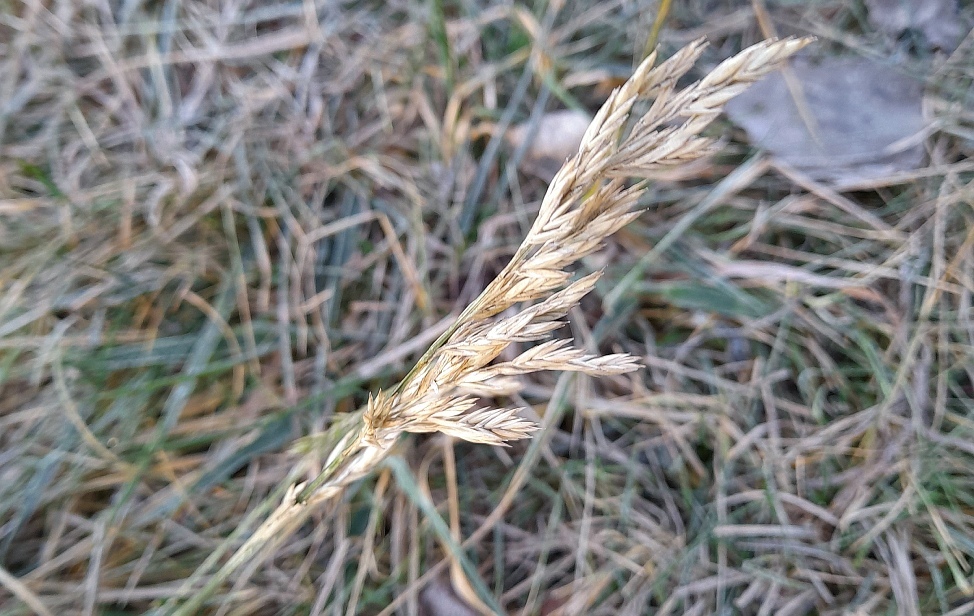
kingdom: Plantae
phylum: Tracheophyta
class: Liliopsida
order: Poales
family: Poaceae
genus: Lolium
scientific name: Lolium arundinaceum
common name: Reed fescue
